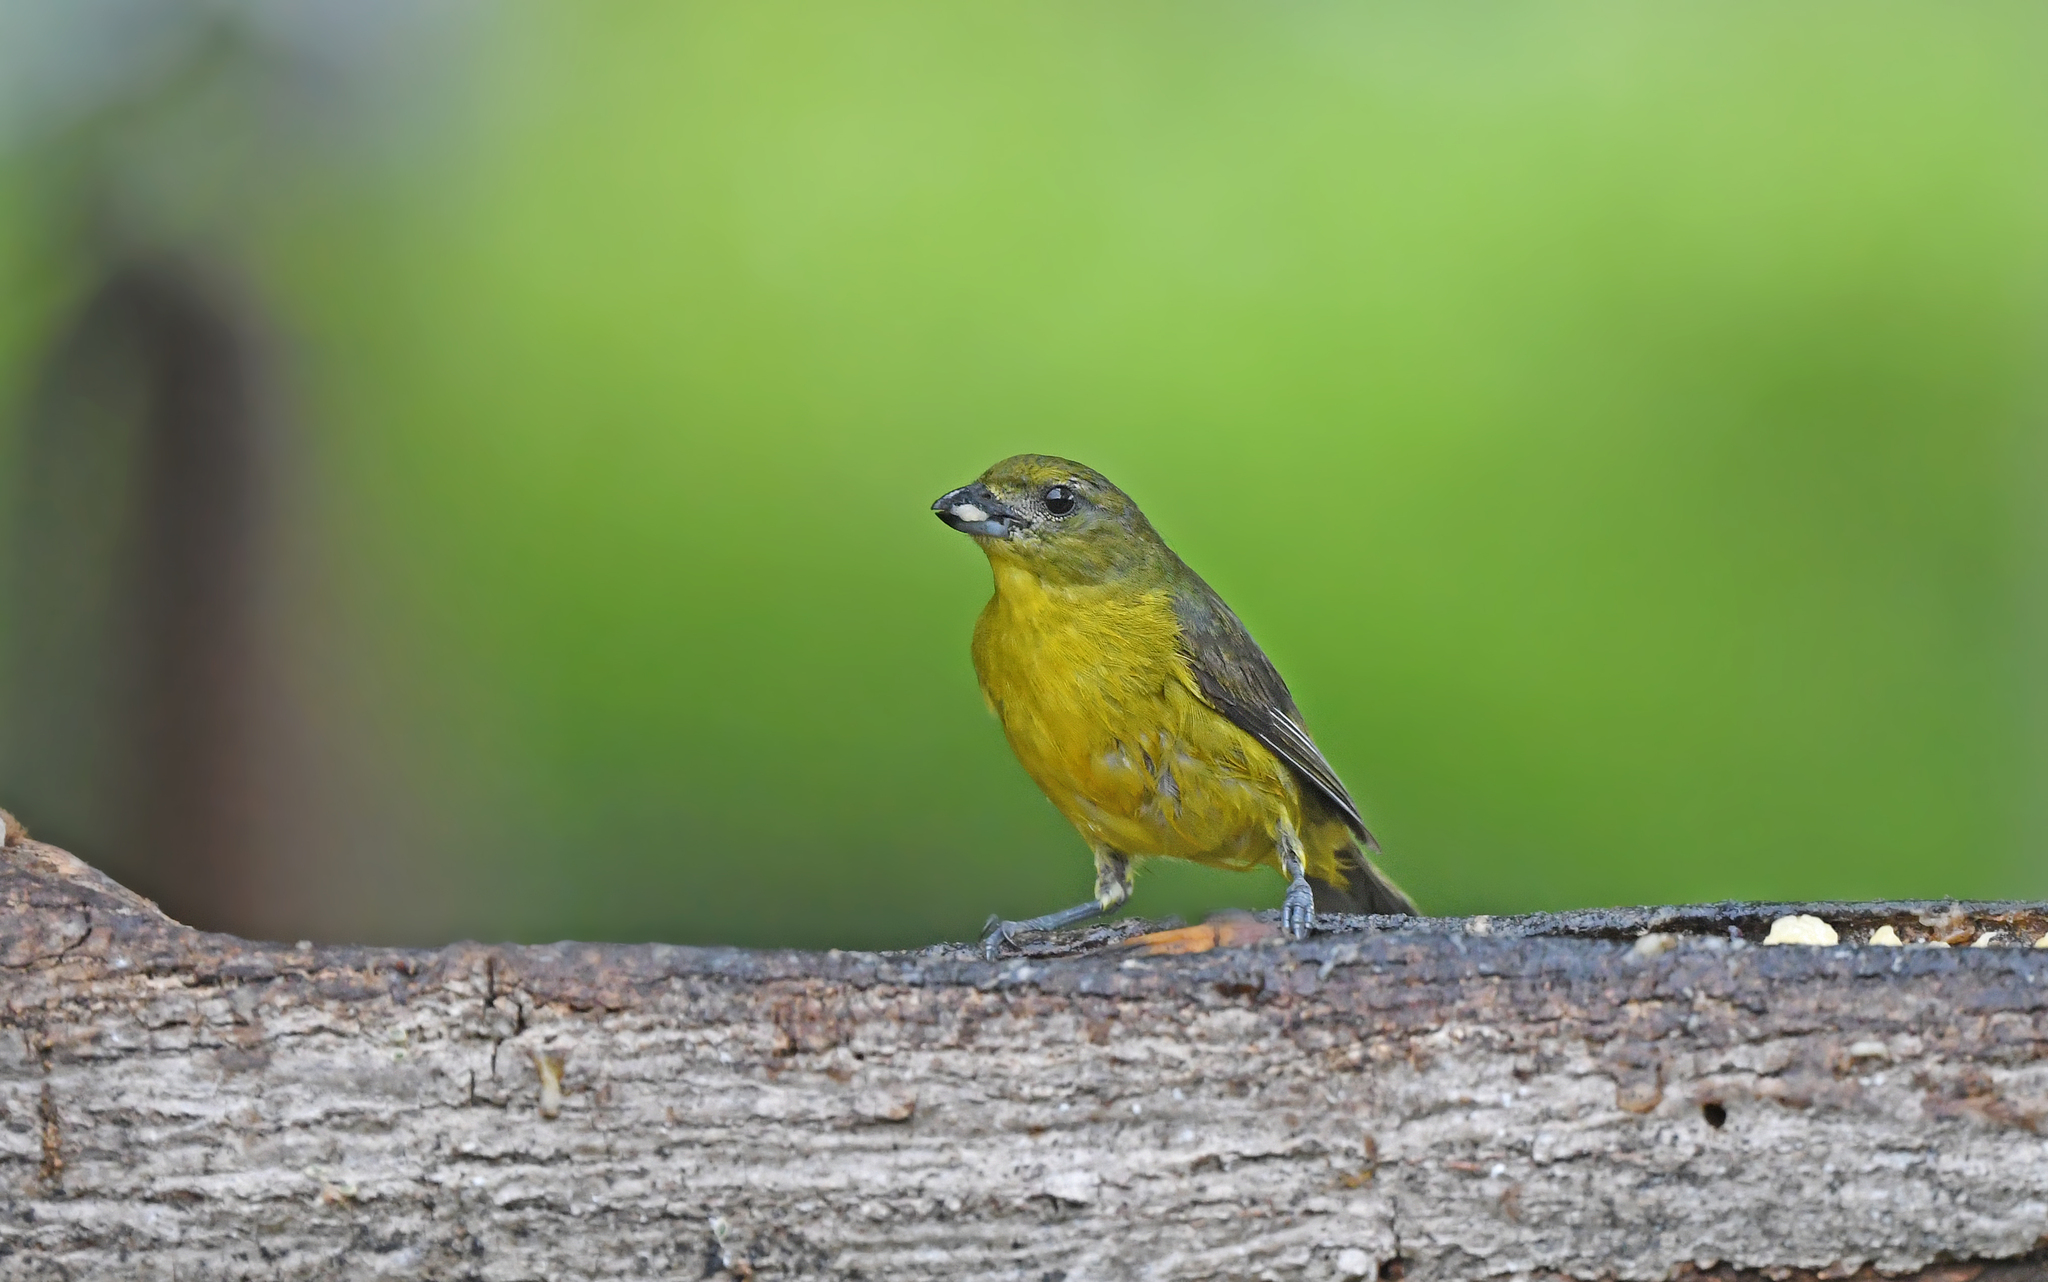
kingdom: Animalia
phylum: Chordata
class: Aves
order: Passeriformes
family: Fringillidae
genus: Euphonia
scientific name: Euphonia laniirostris
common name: Thick-billed euphonia
